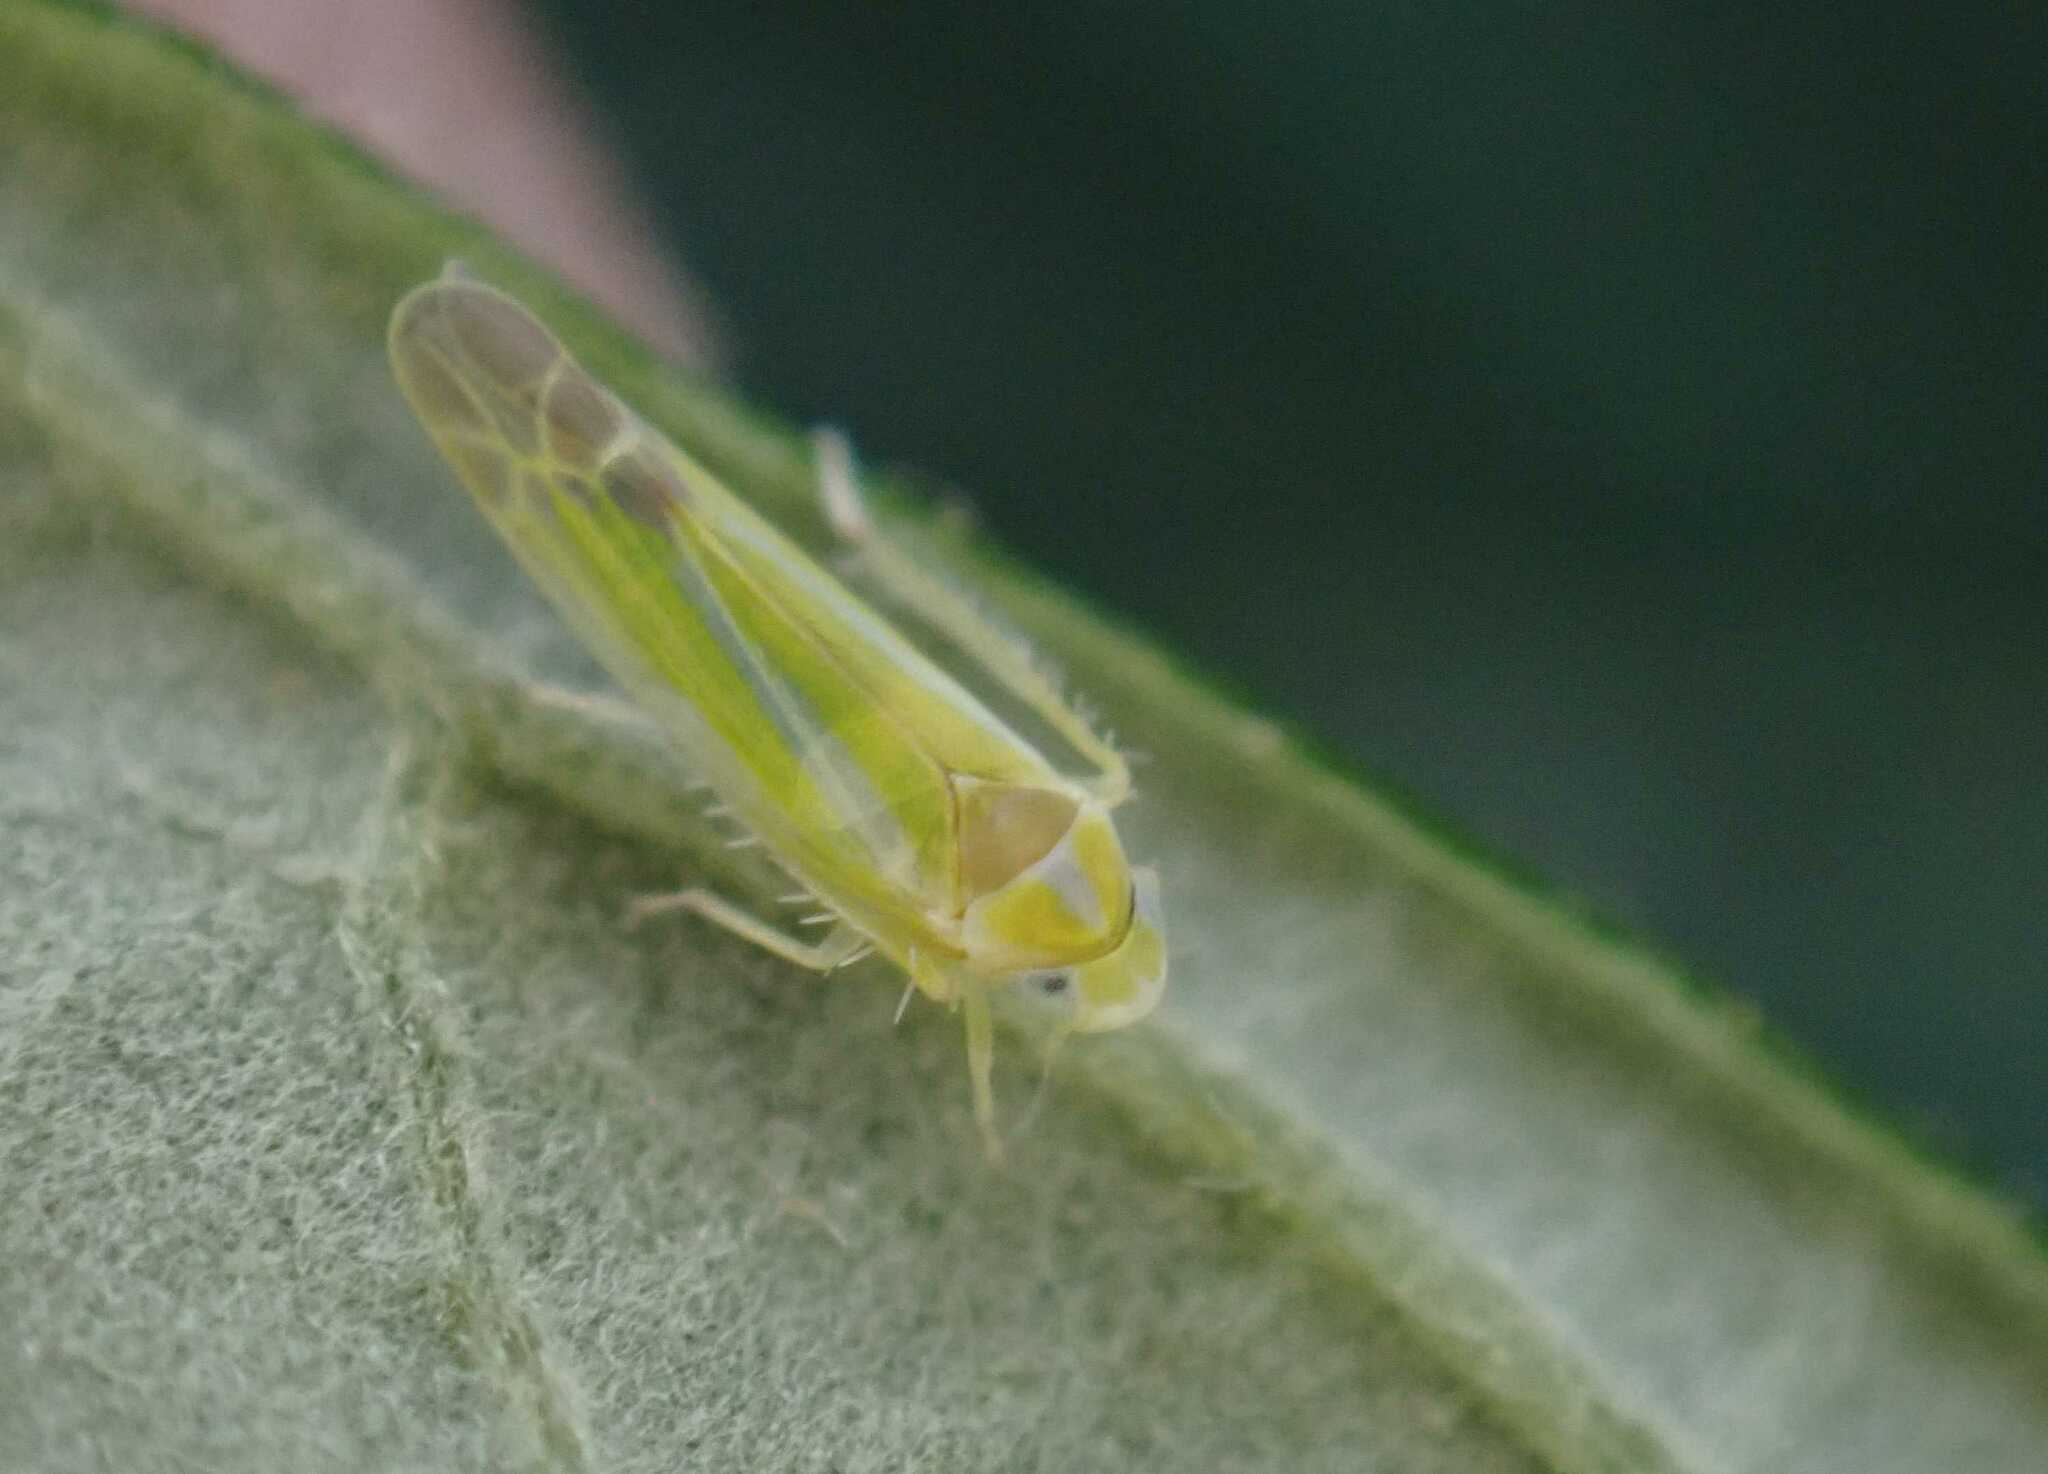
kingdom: Animalia
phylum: Arthropoda
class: Insecta
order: Hemiptera
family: Cicadellidae
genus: Lindbergina
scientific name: Lindbergina aurovittata
